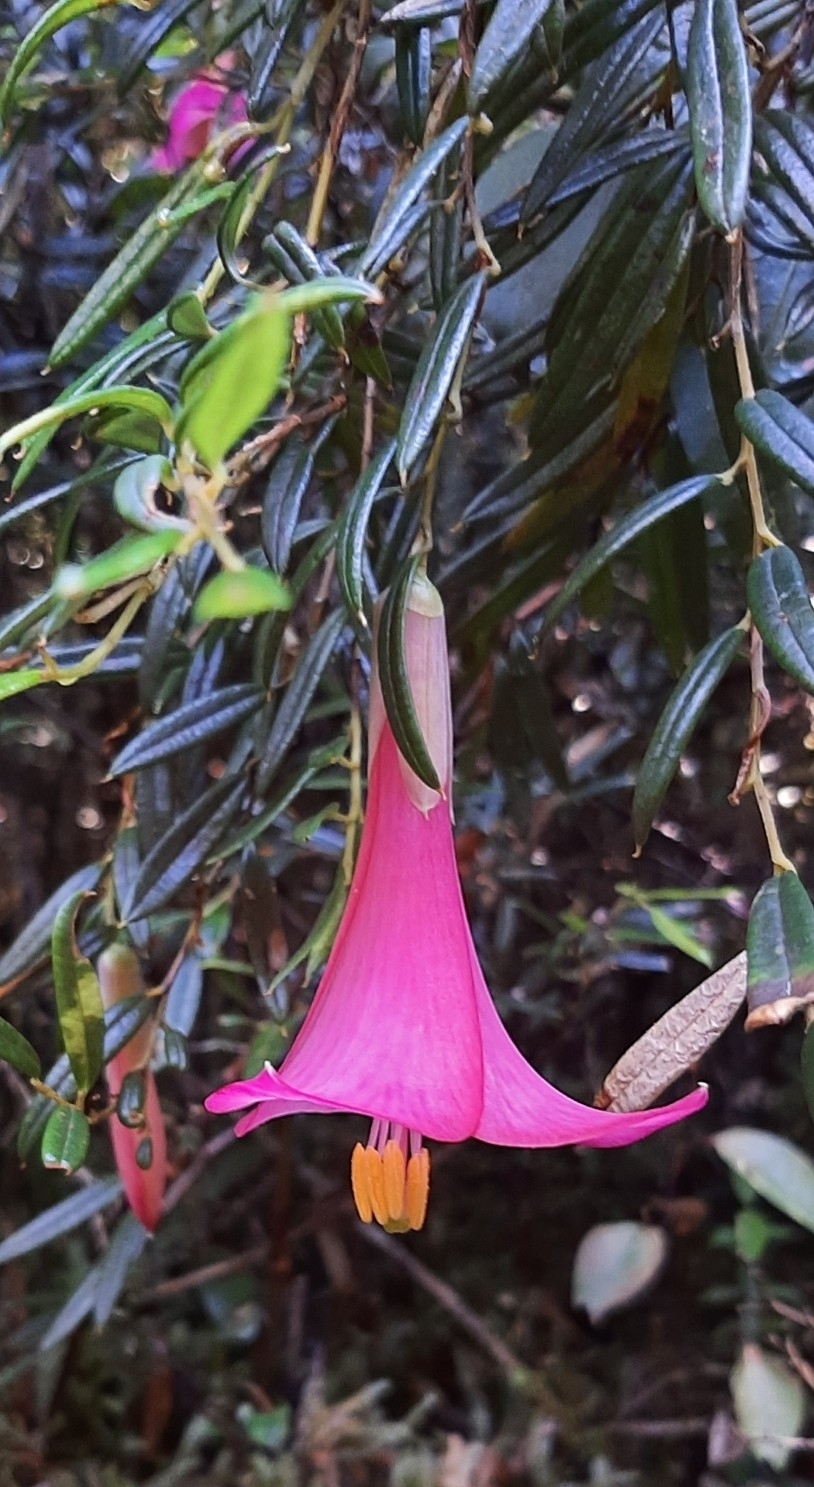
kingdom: Plantae
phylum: Tracheophyta
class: Liliopsida
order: Liliales
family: Philesiaceae
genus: Philesia
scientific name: Philesia magellanica
